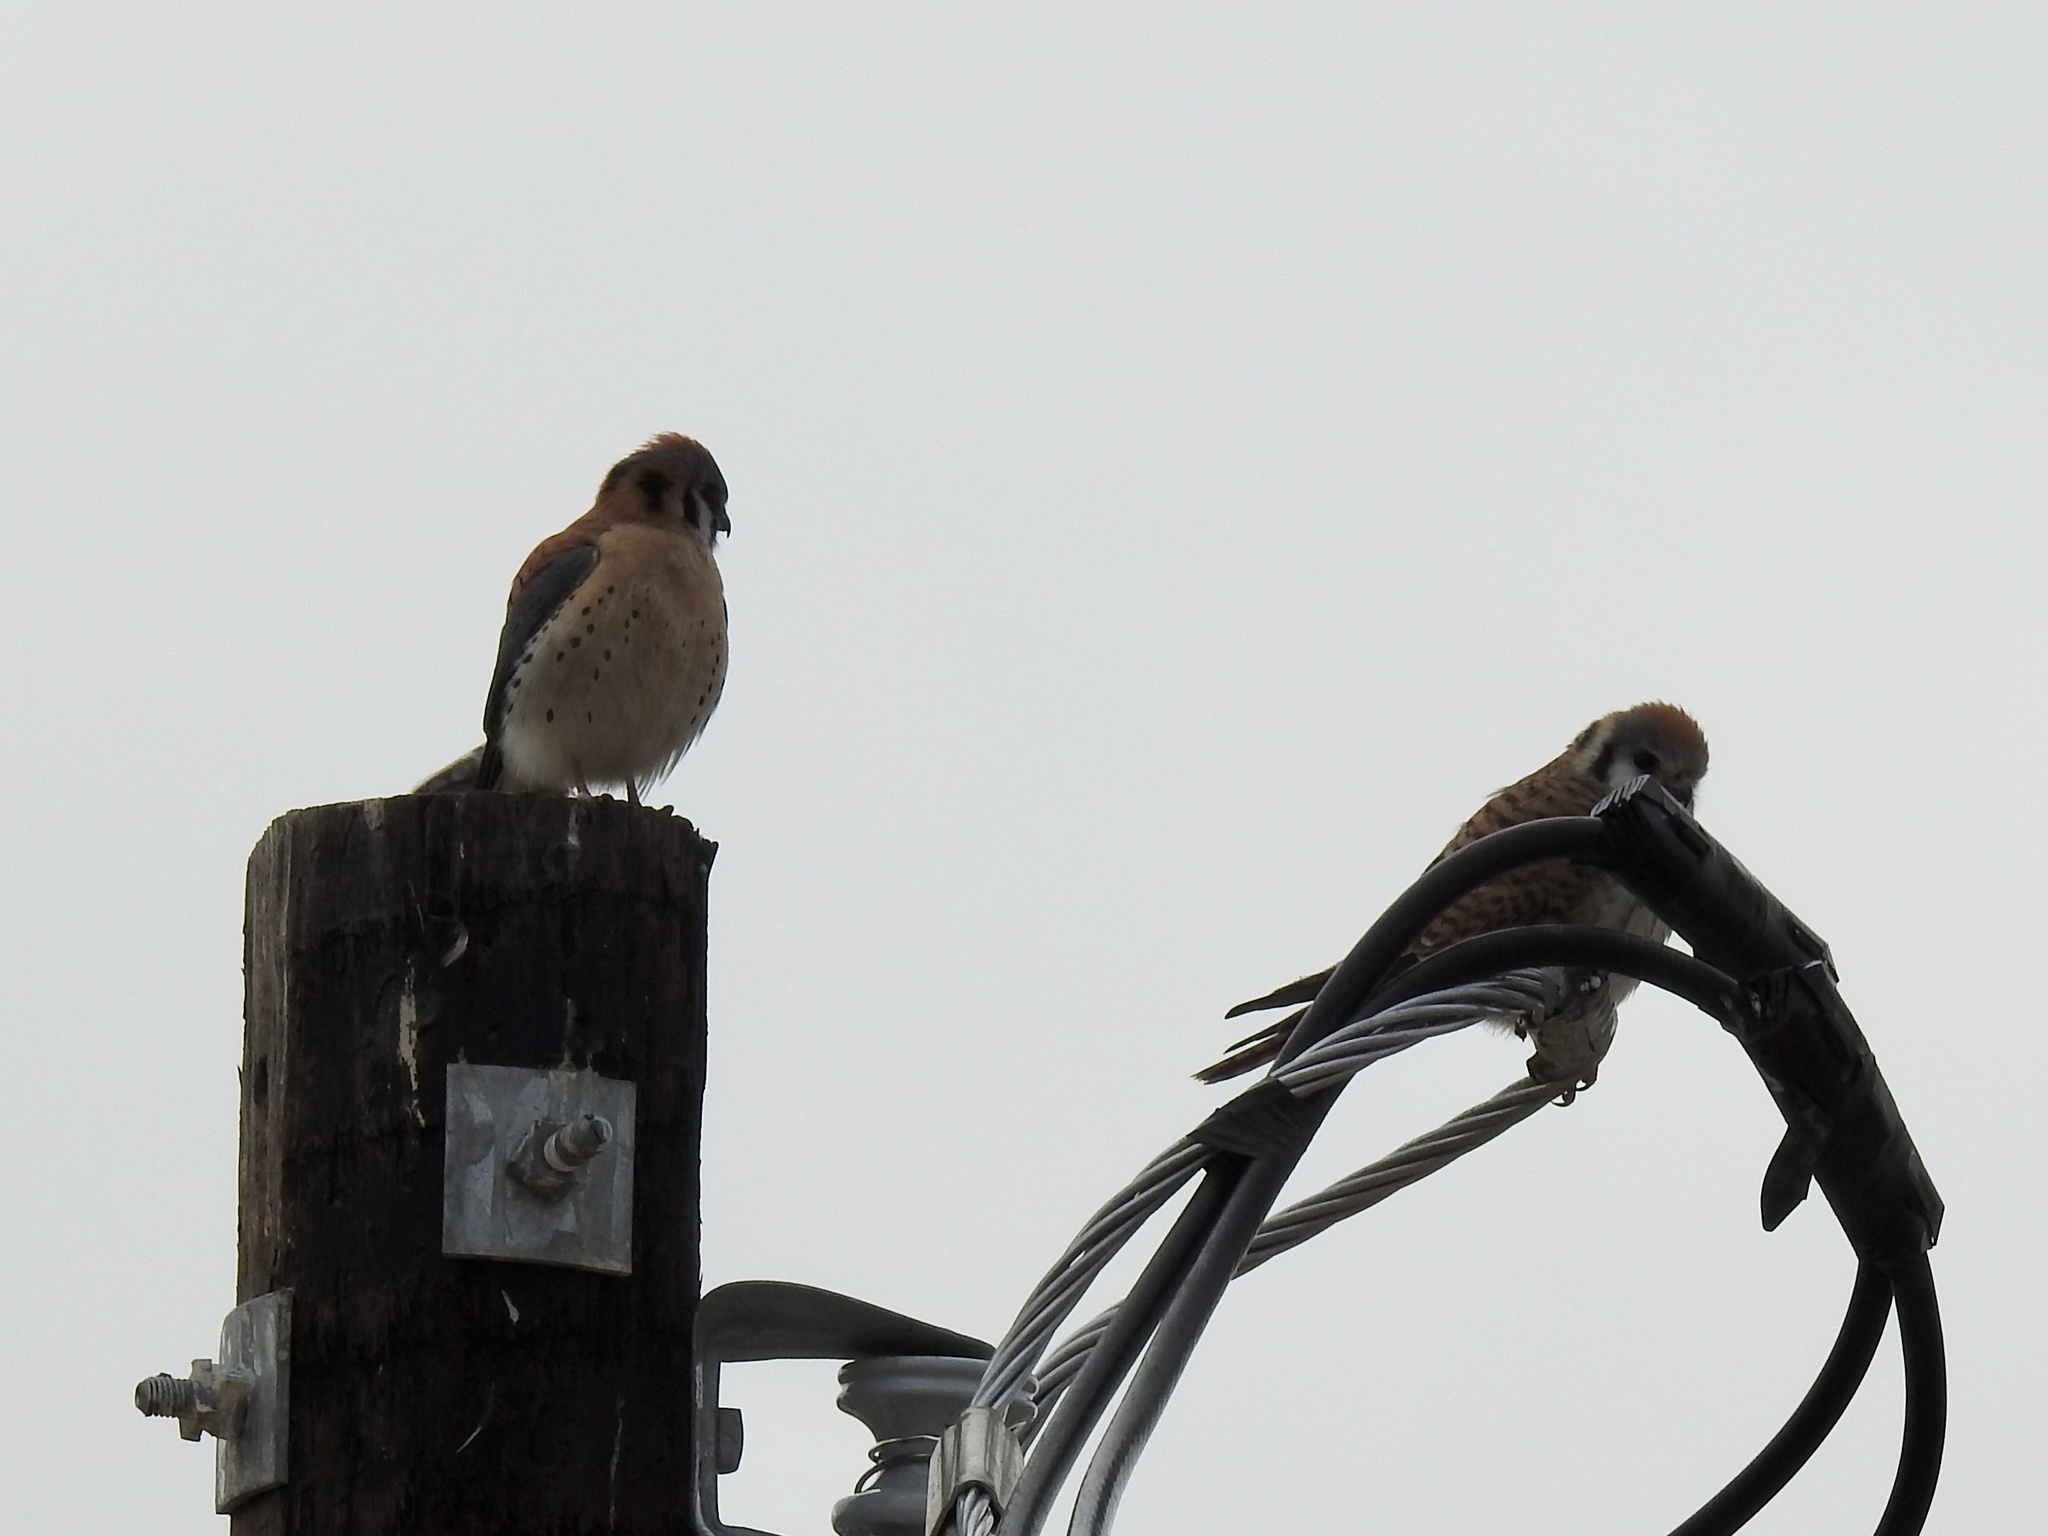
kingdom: Animalia
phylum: Chordata
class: Aves
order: Falconiformes
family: Falconidae
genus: Falco
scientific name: Falco sparverius
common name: American kestrel
